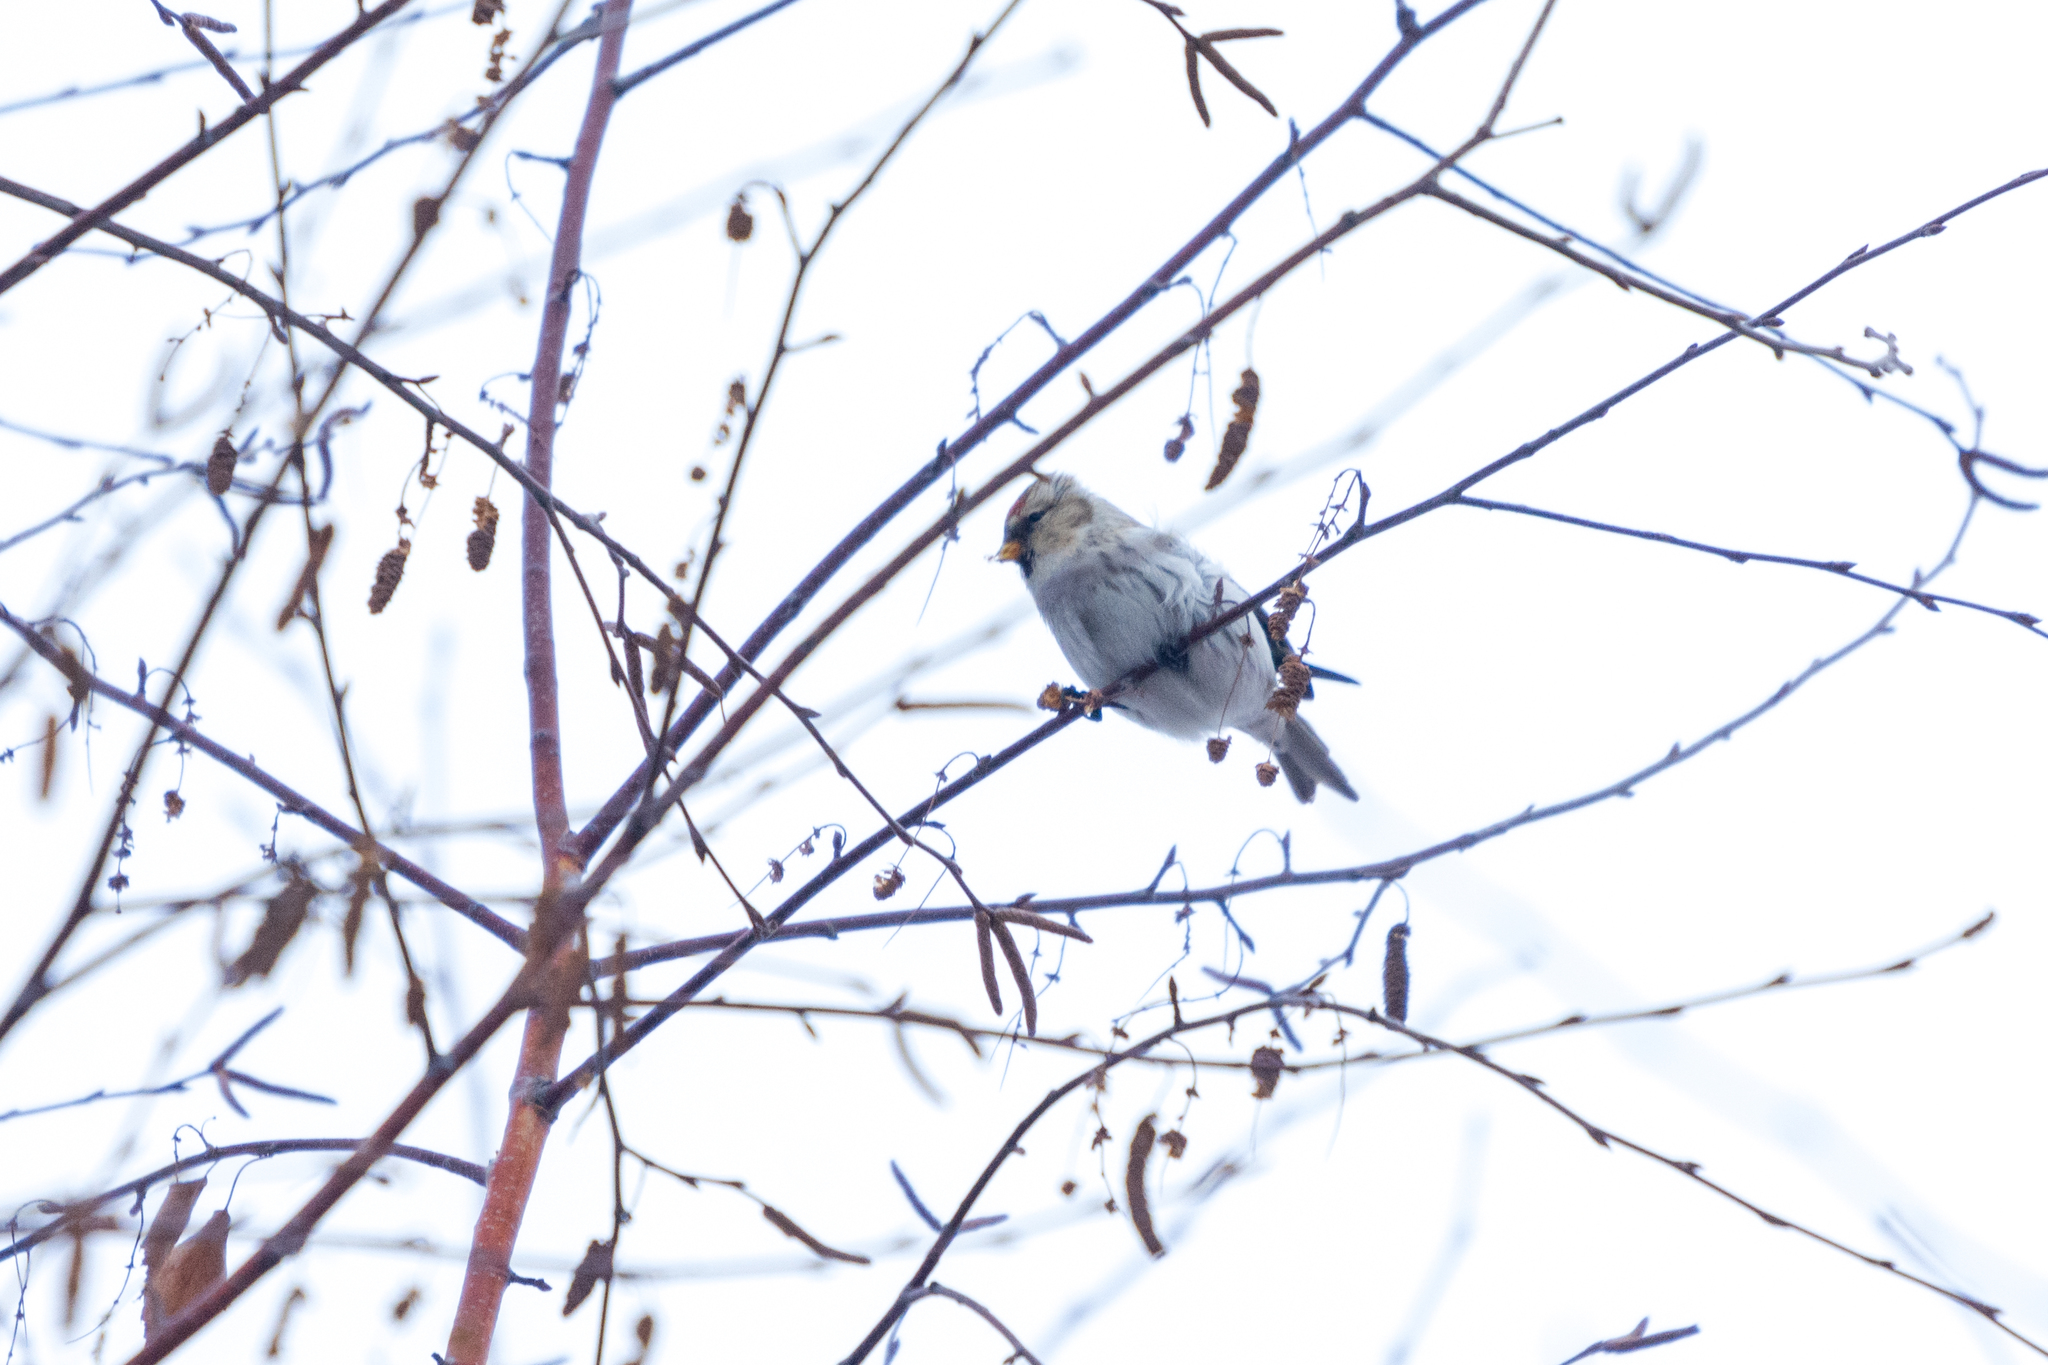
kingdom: Animalia
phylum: Chordata
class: Aves
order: Passeriformes
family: Fringillidae
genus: Acanthis
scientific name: Acanthis hornemanni
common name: Arctic redpoll
